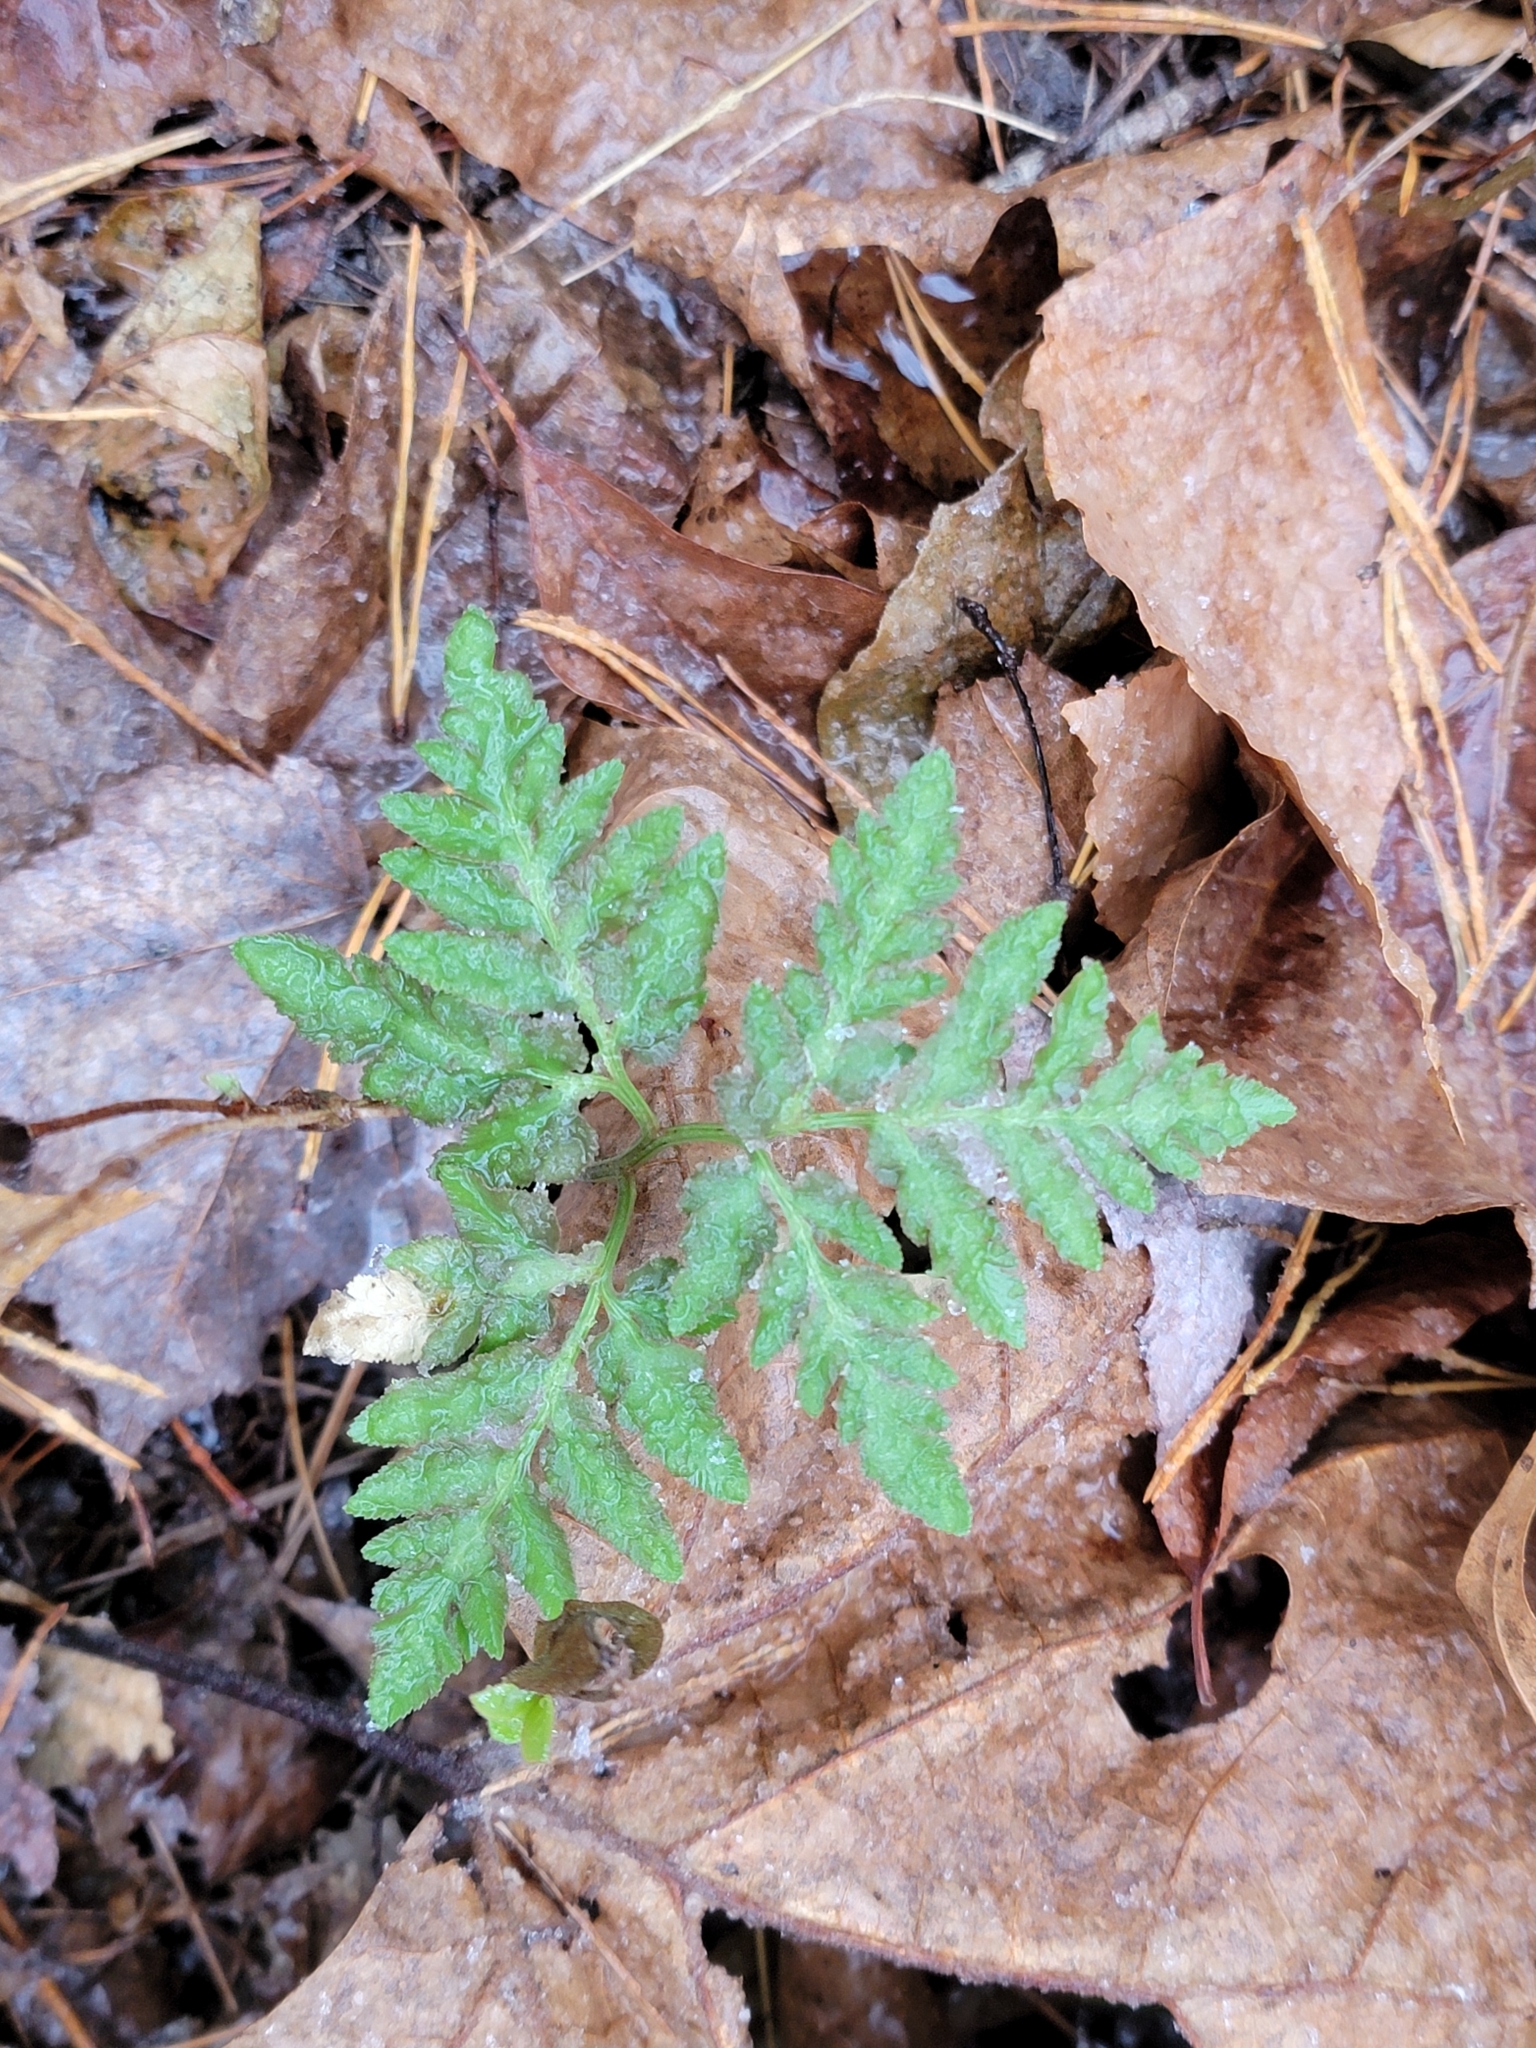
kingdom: Plantae
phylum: Tracheophyta
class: Polypodiopsida
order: Ophioglossales
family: Ophioglossaceae
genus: Sceptridium
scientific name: Sceptridium dissectum
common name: Cut-leaved grapefern
